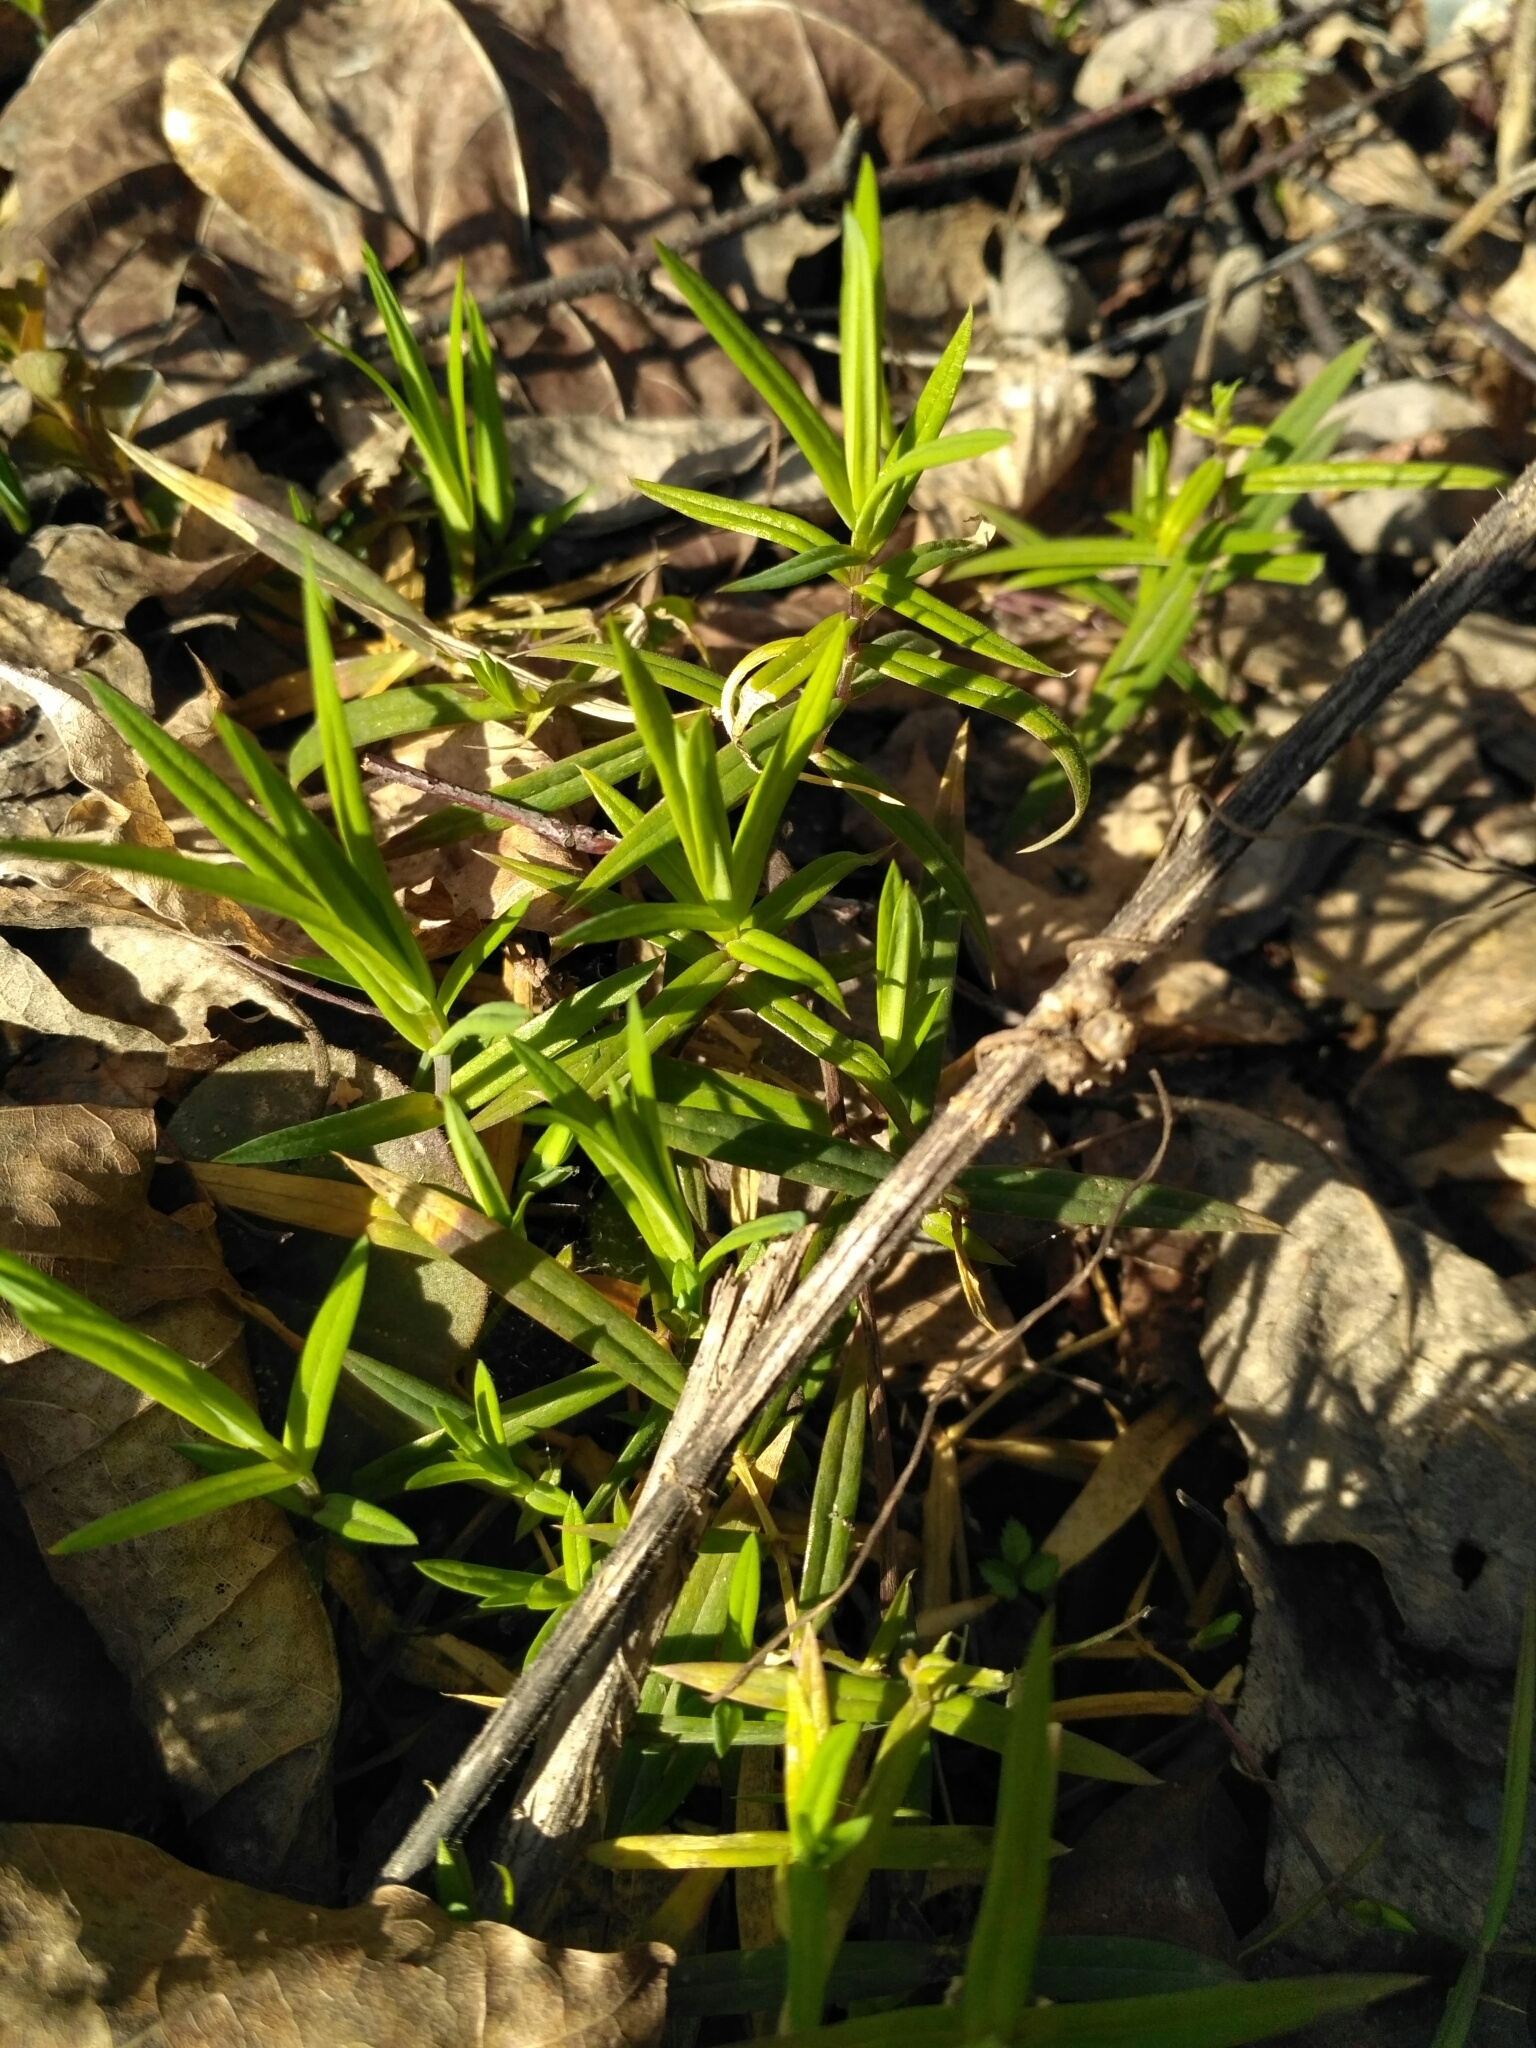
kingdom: Plantae
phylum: Tracheophyta
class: Magnoliopsida
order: Caryophyllales
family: Caryophyllaceae
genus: Rabelera
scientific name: Rabelera holostea
